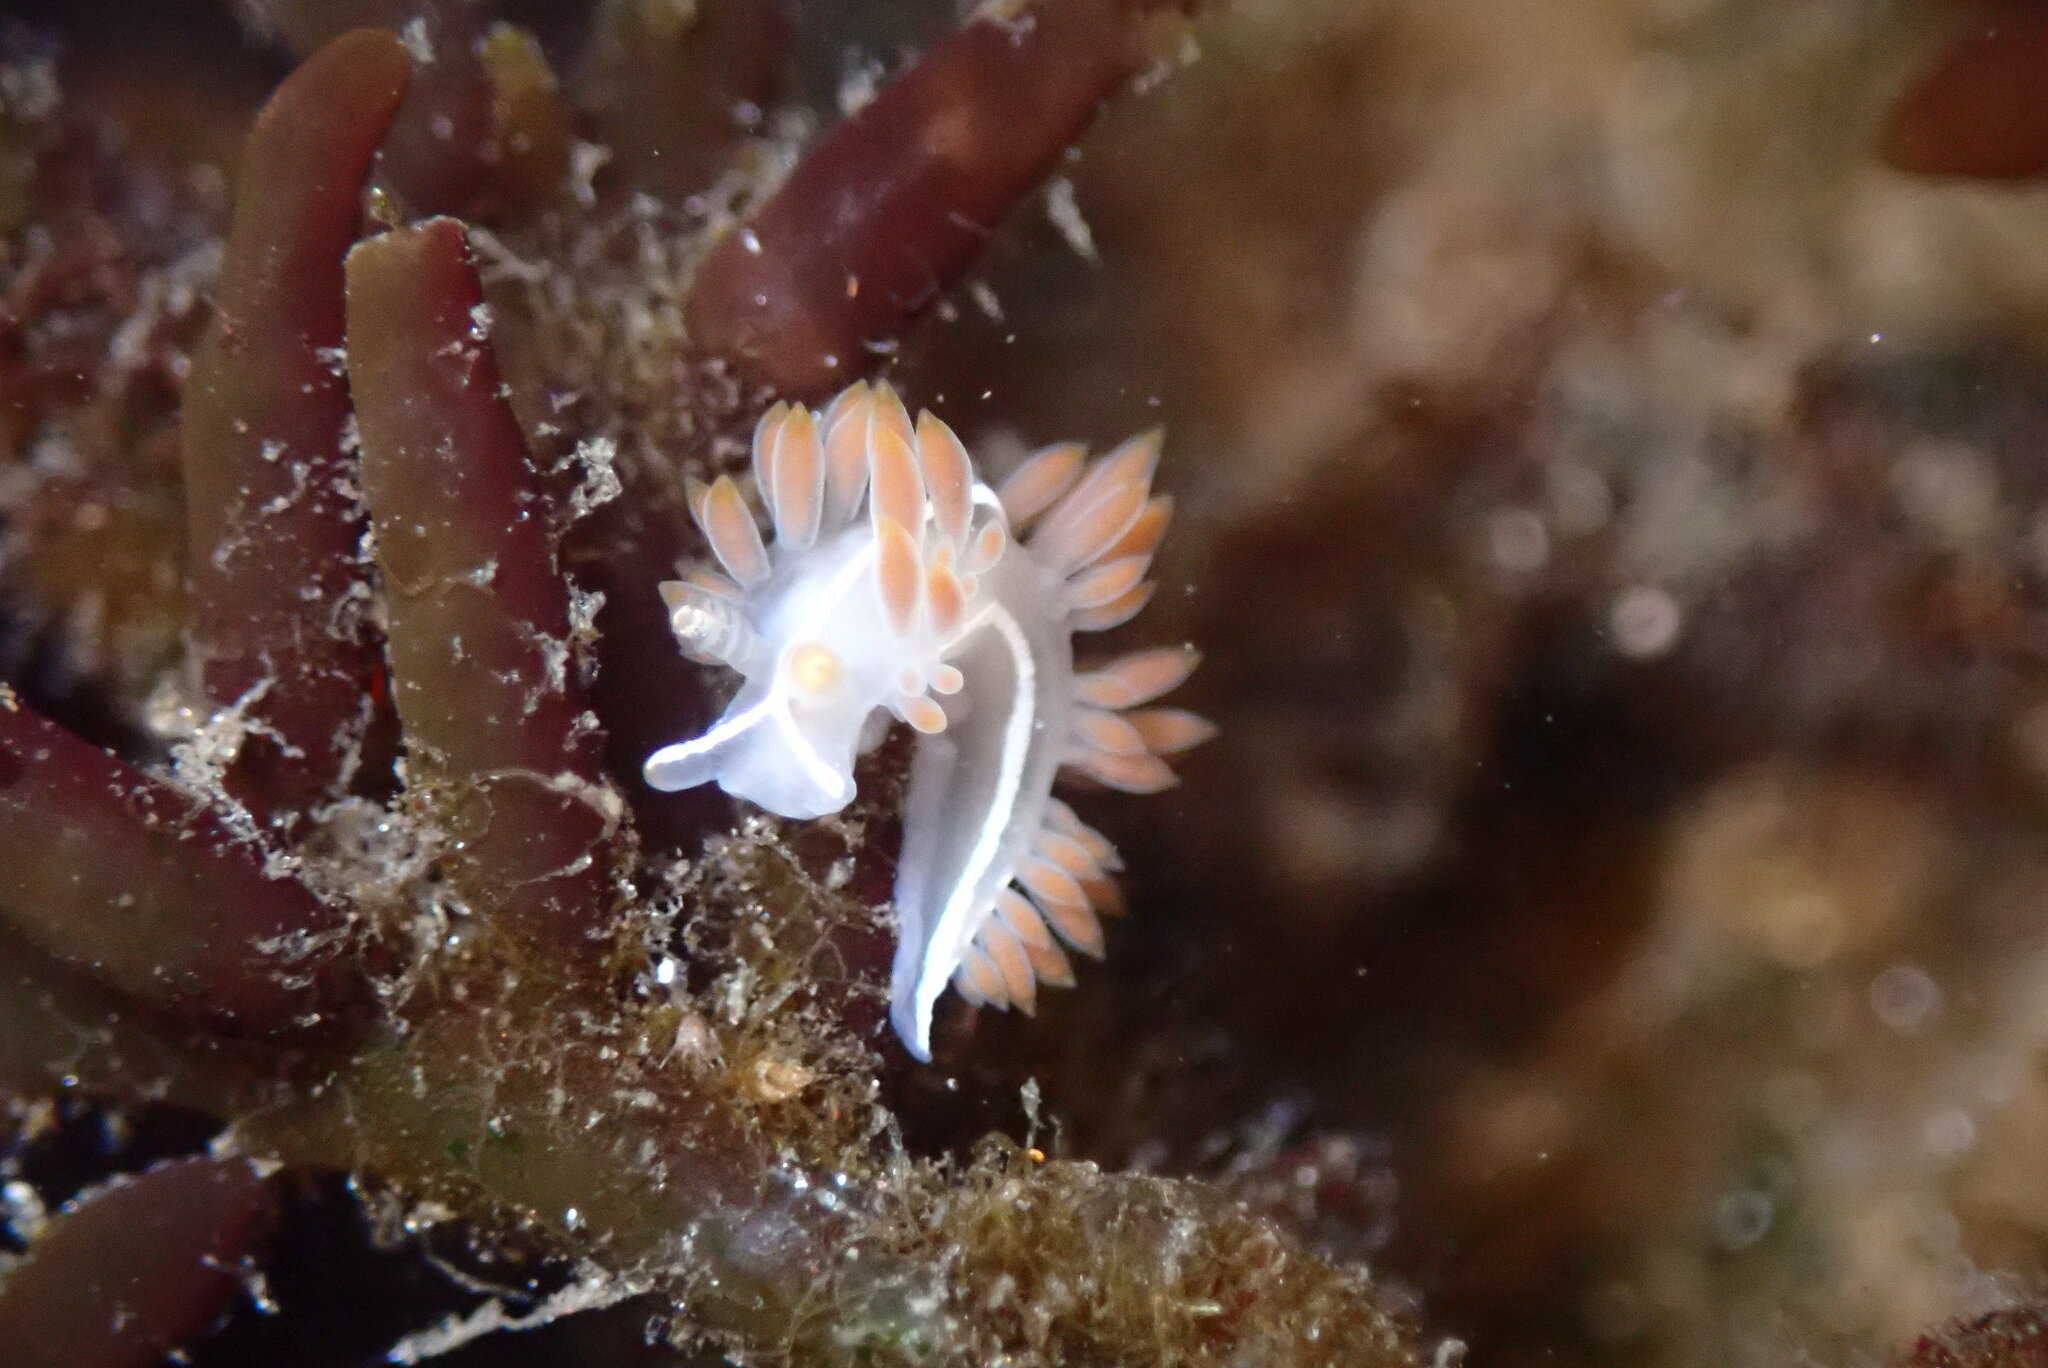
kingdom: Animalia
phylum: Mollusca
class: Gastropoda
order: Nudibranchia
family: Coryphellidae
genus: Coryphella
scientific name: Coryphella trilineata
